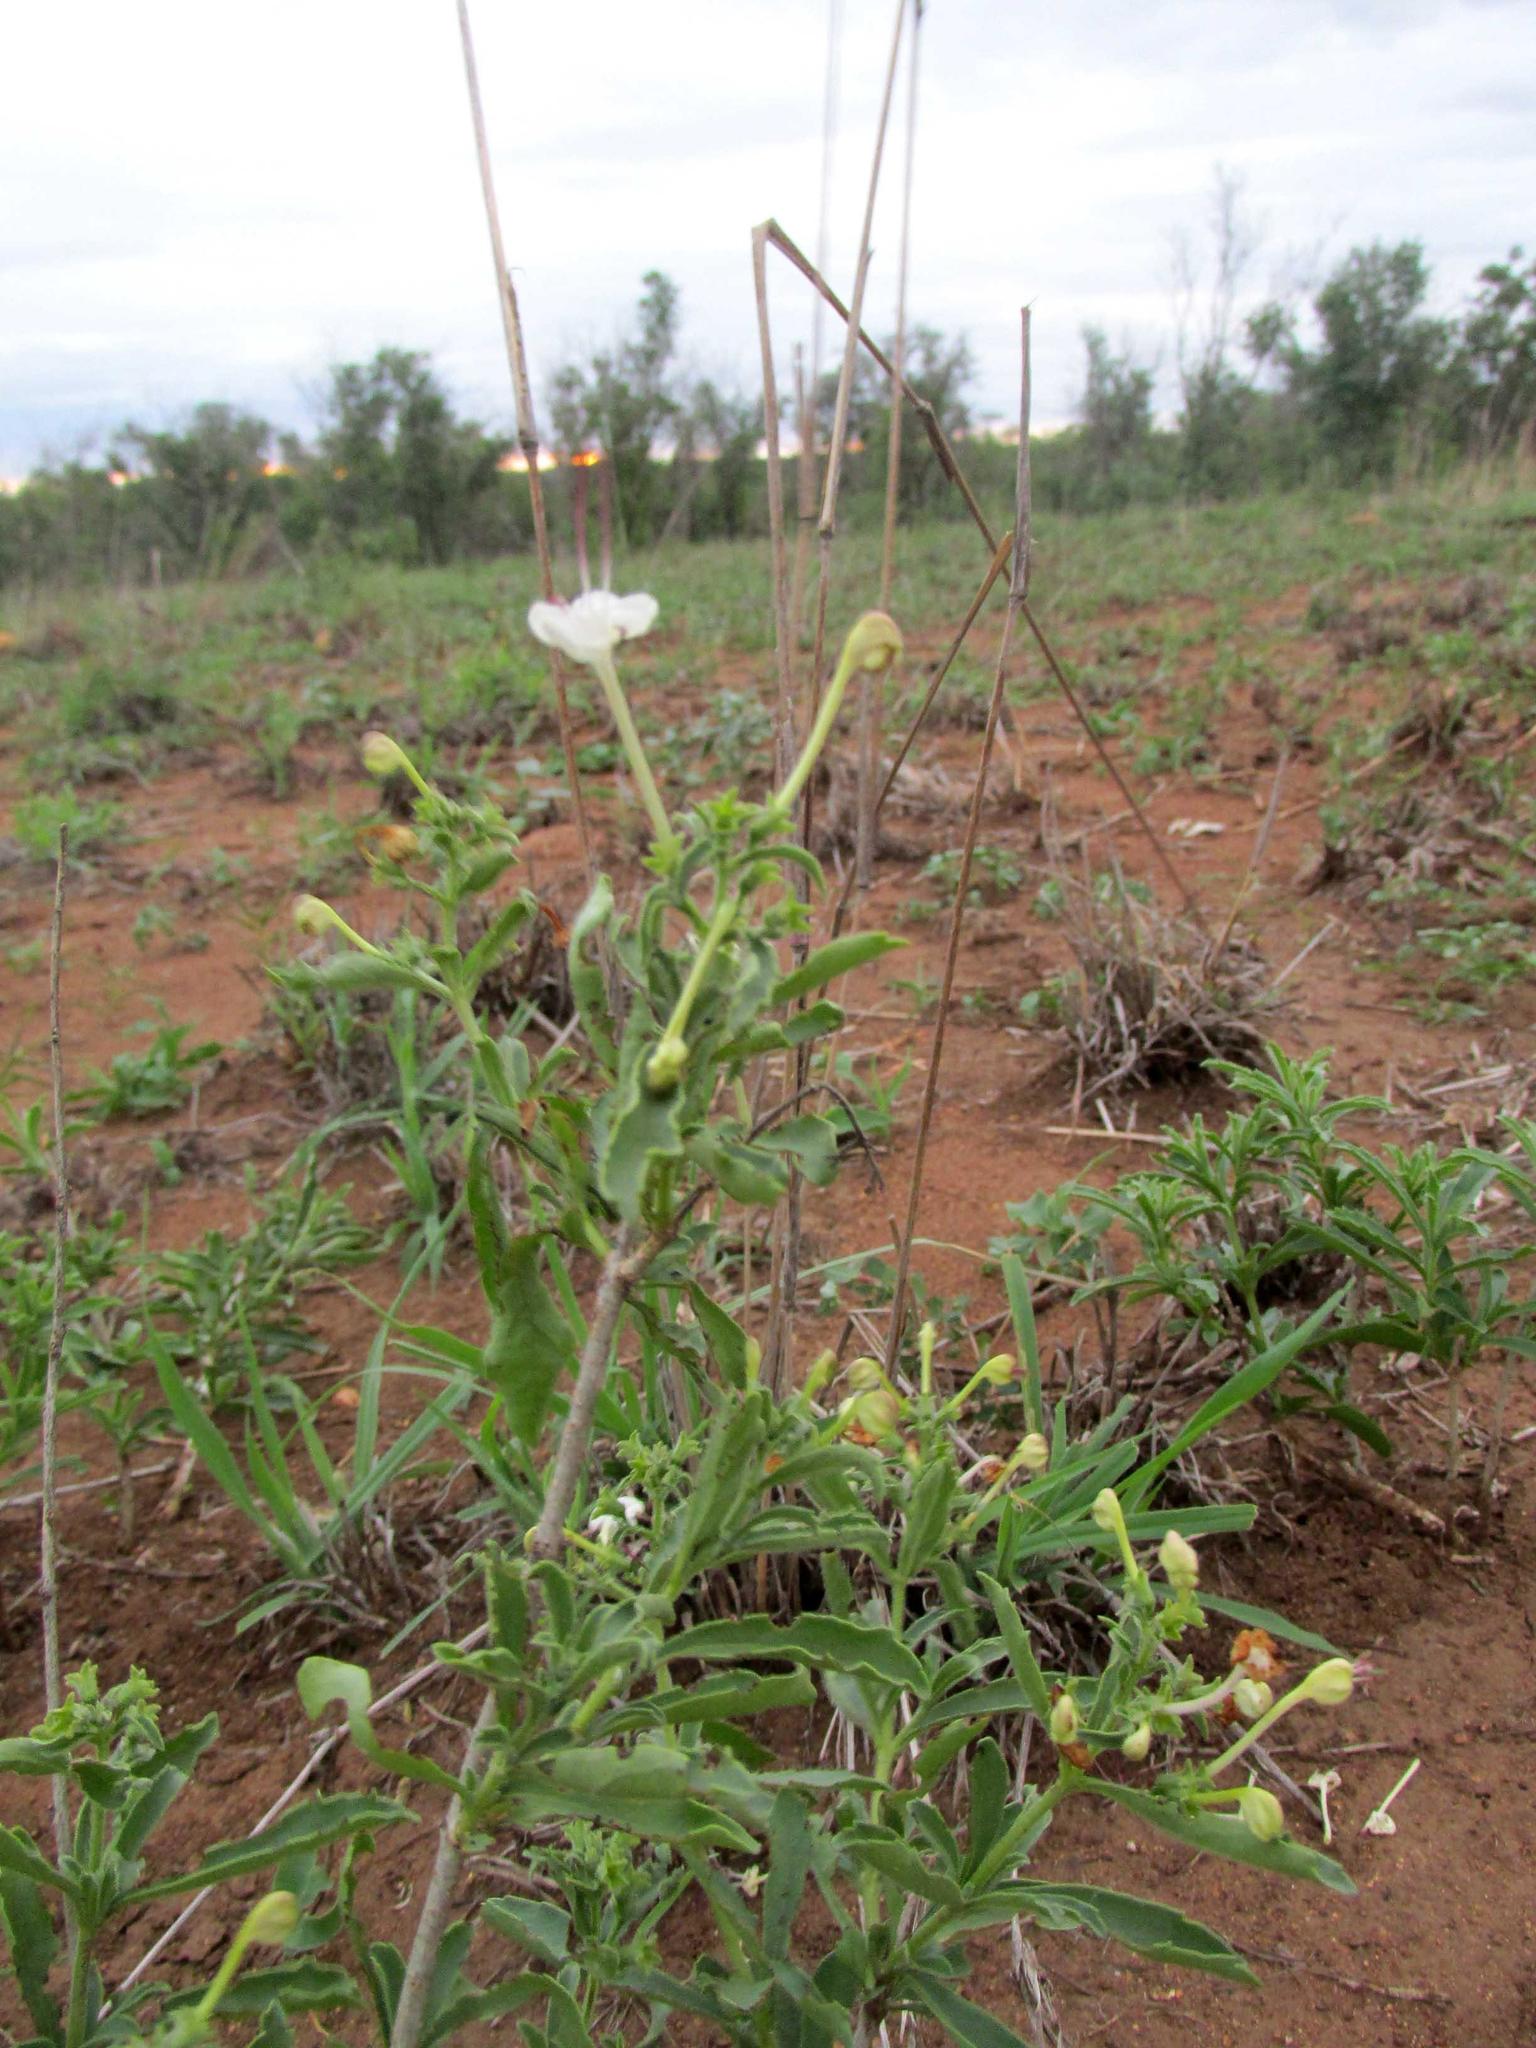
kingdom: Plantae
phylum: Tracheophyta
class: Magnoliopsida
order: Lamiales
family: Lamiaceae
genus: Clerodendrum
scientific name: Clerodendrum ternatum
